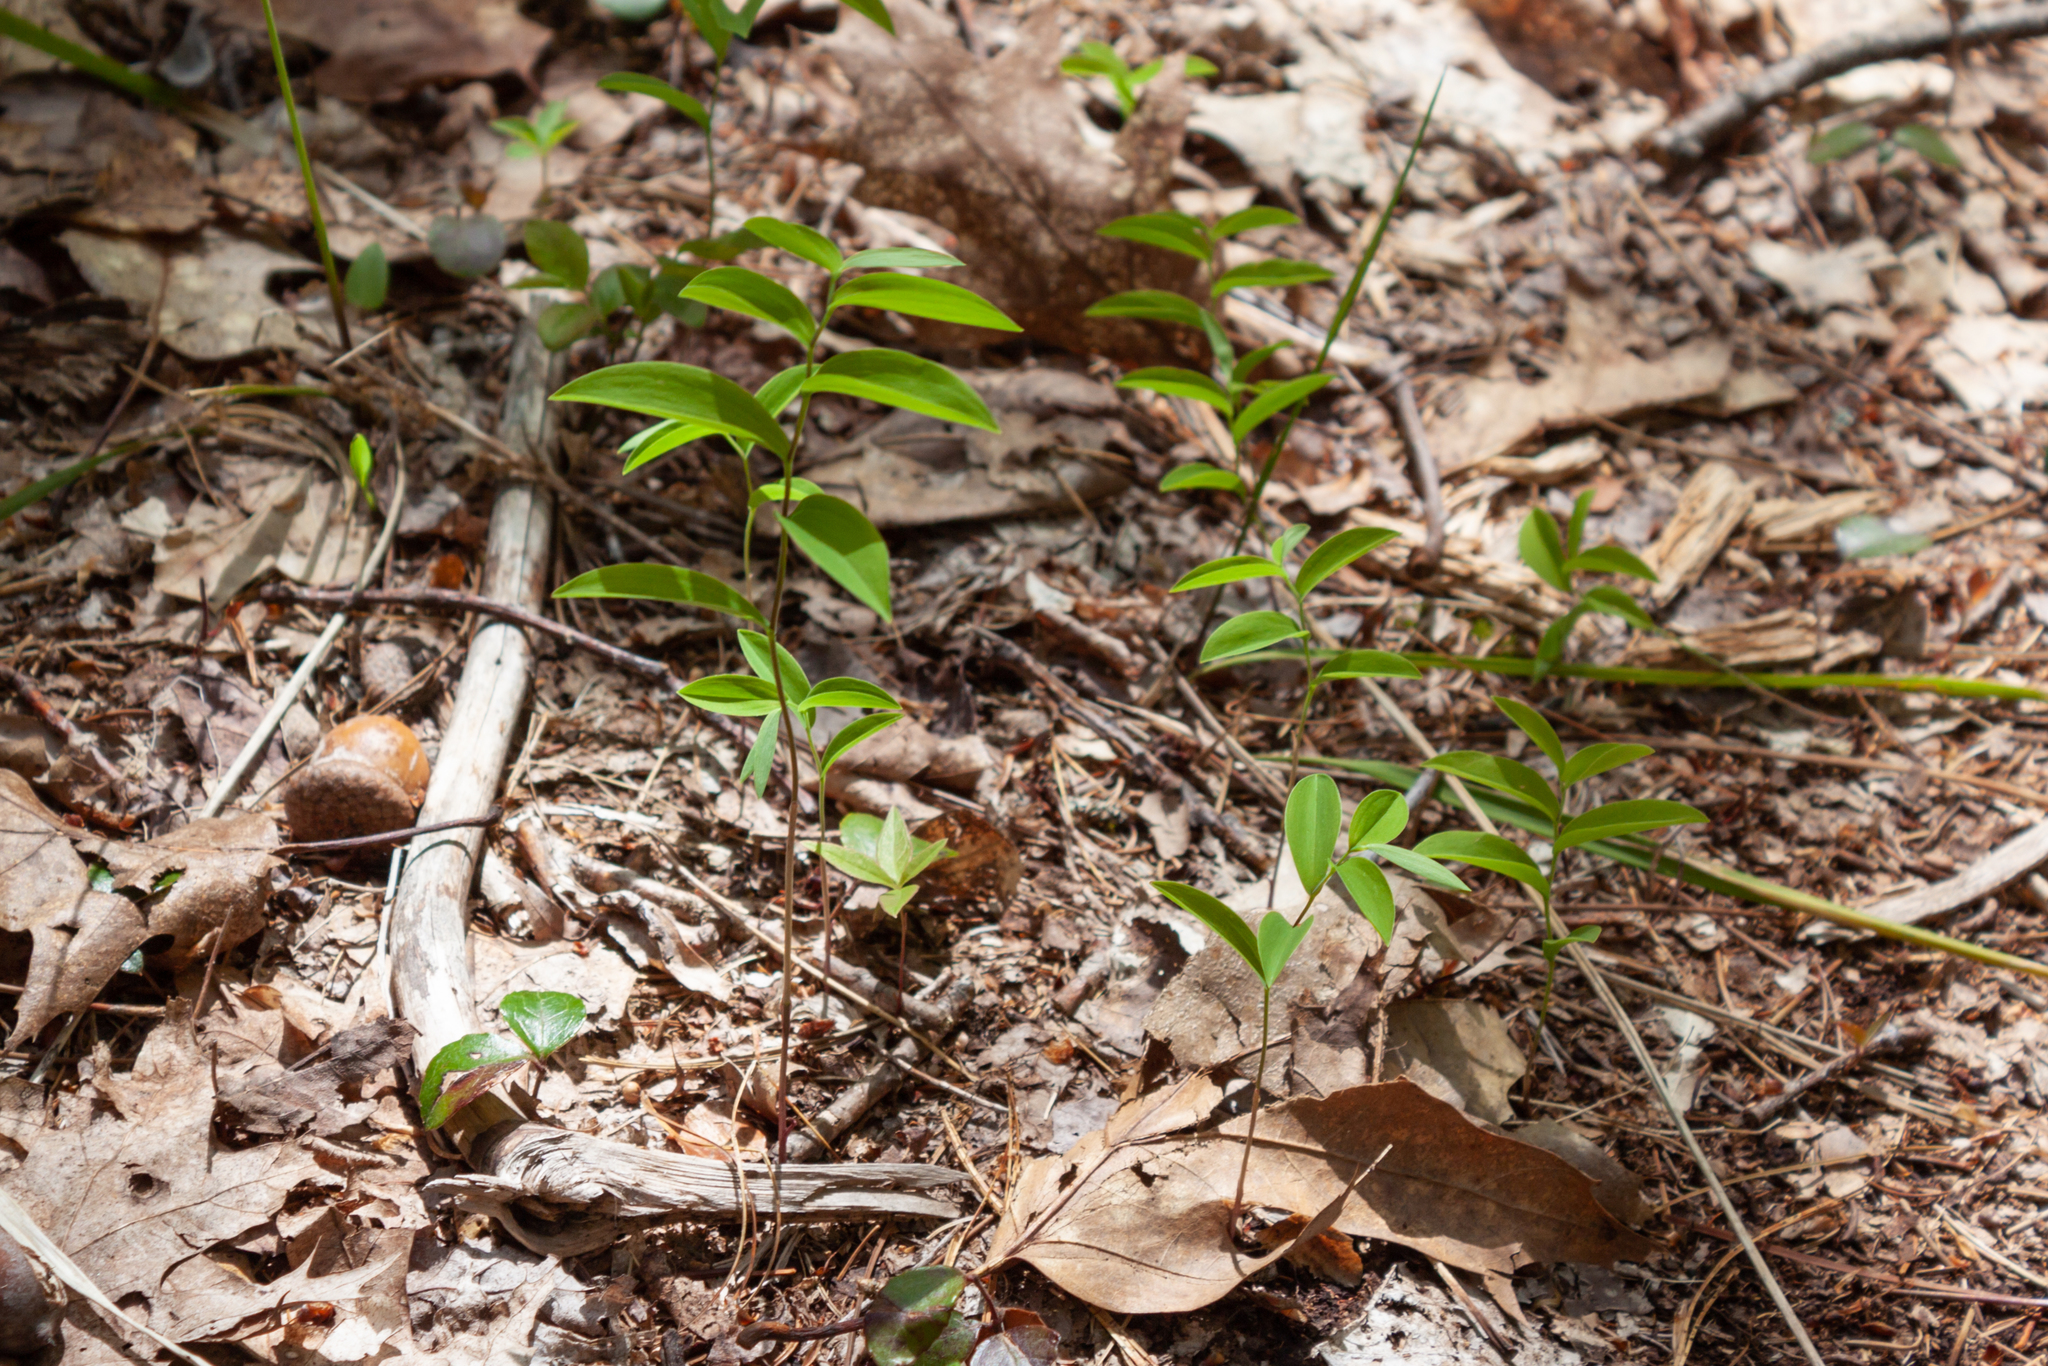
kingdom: Plantae
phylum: Tracheophyta
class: Liliopsida
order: Liliales
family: Colchicaceae
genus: Uvularia
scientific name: Uvularia sessilifolia
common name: Straw-lily
